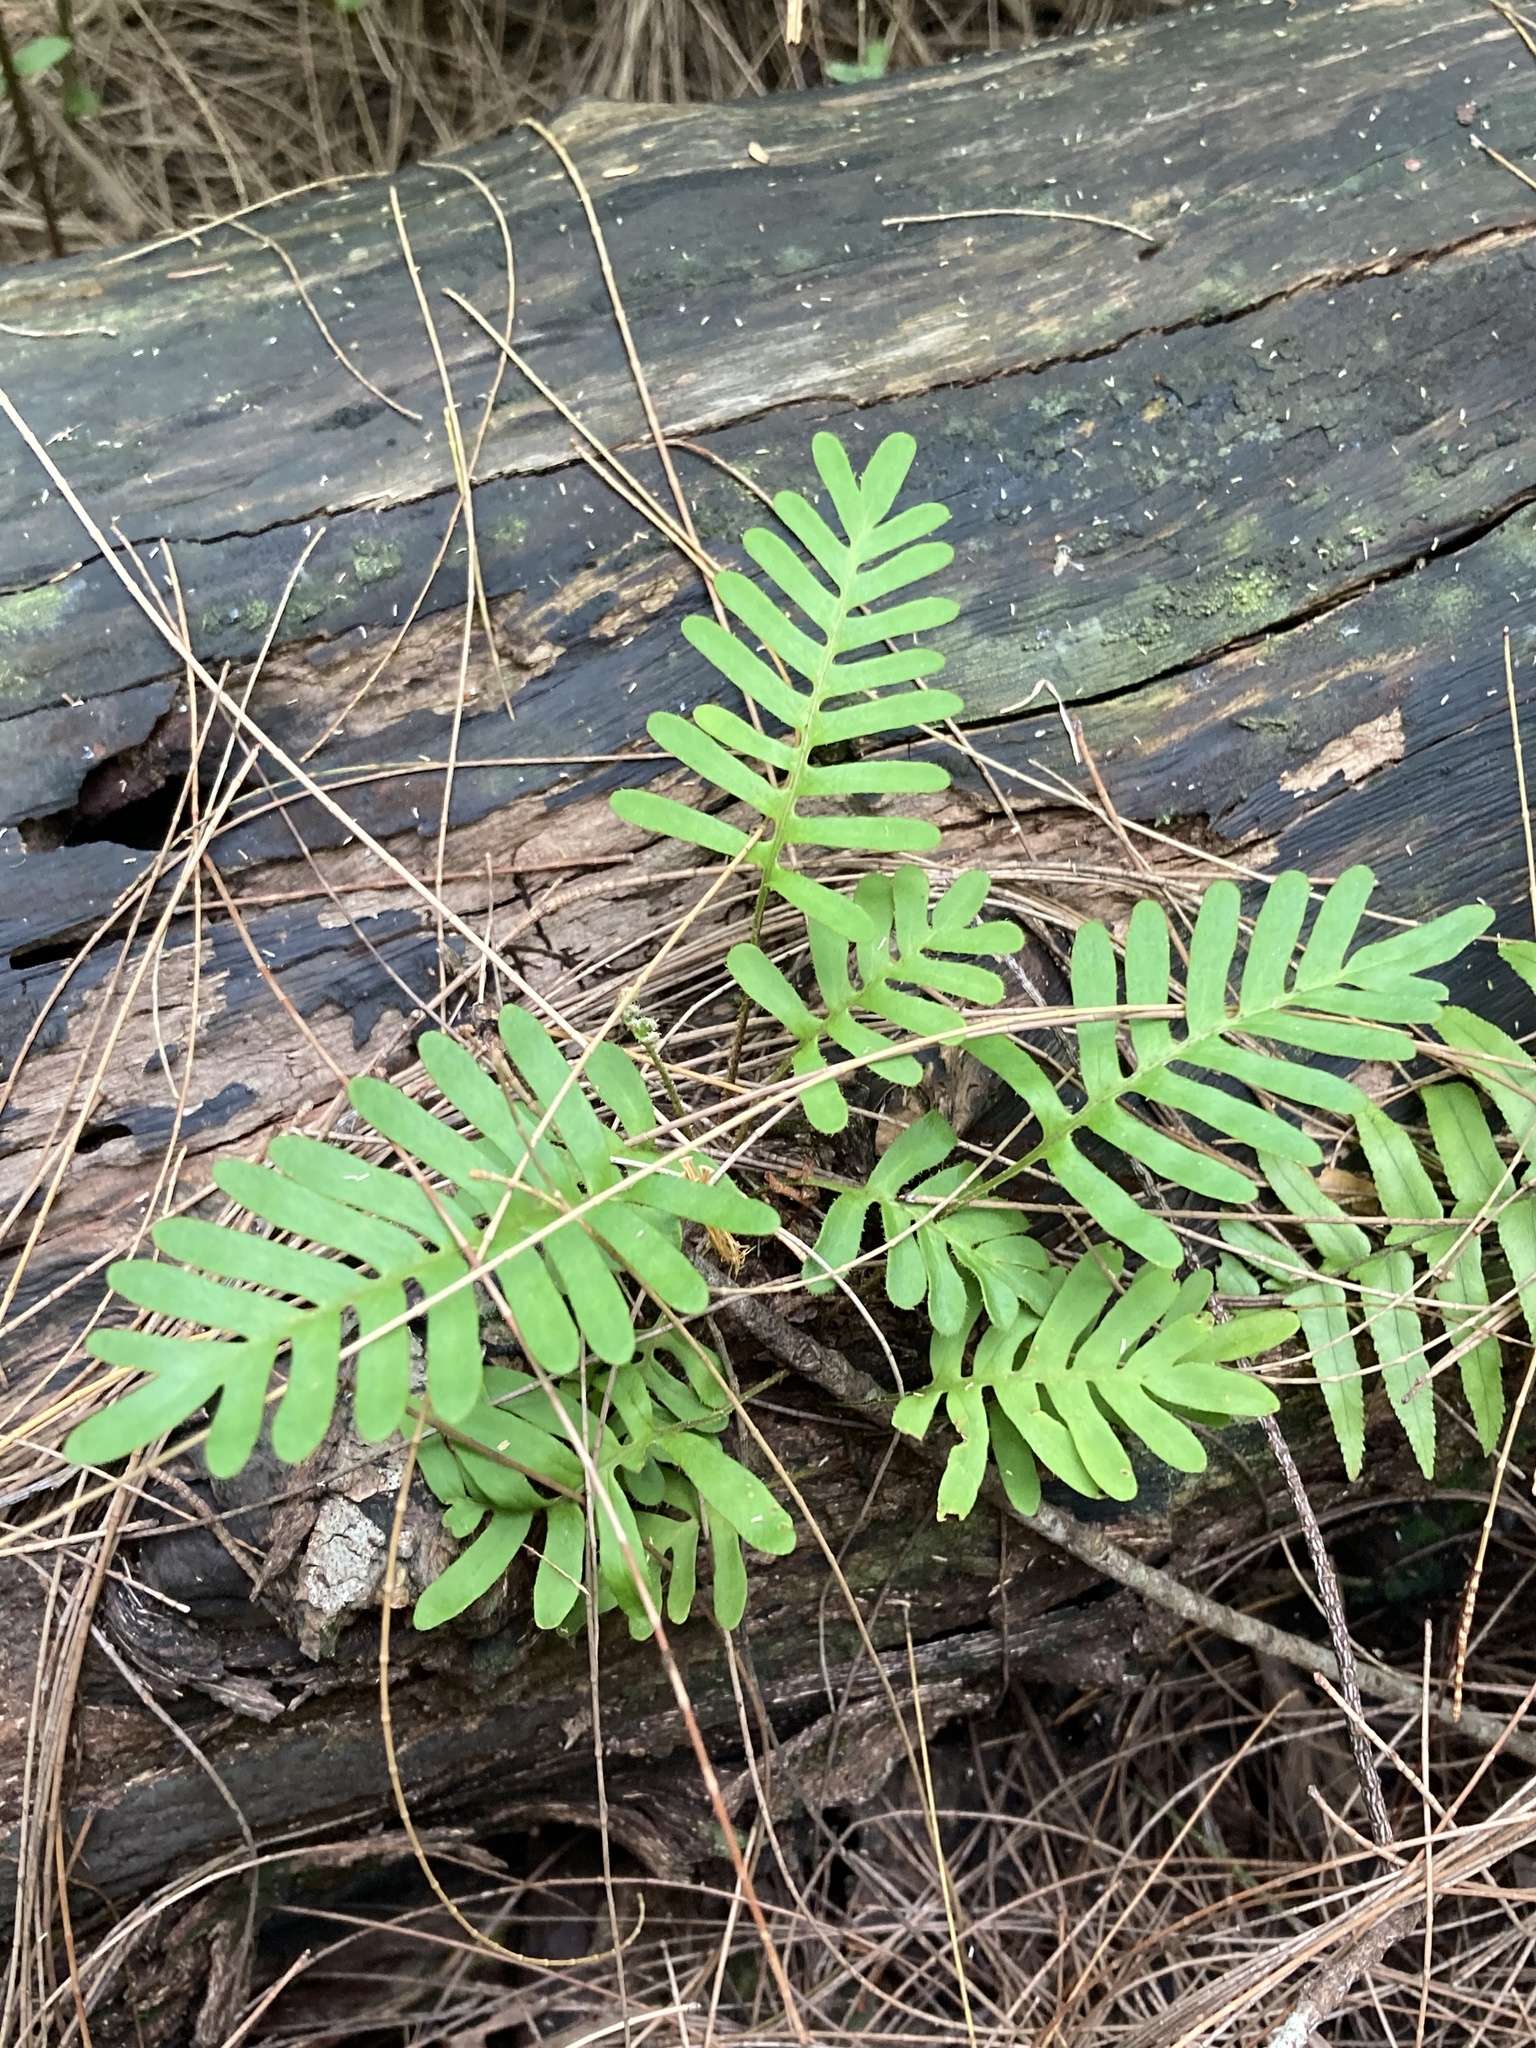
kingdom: Plantae
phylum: Tracheophyta
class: Polypodiopsida
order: Polypodiales
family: Polypodiaceae
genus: Pleopeltis
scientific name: Pleopeltis michauxiana
